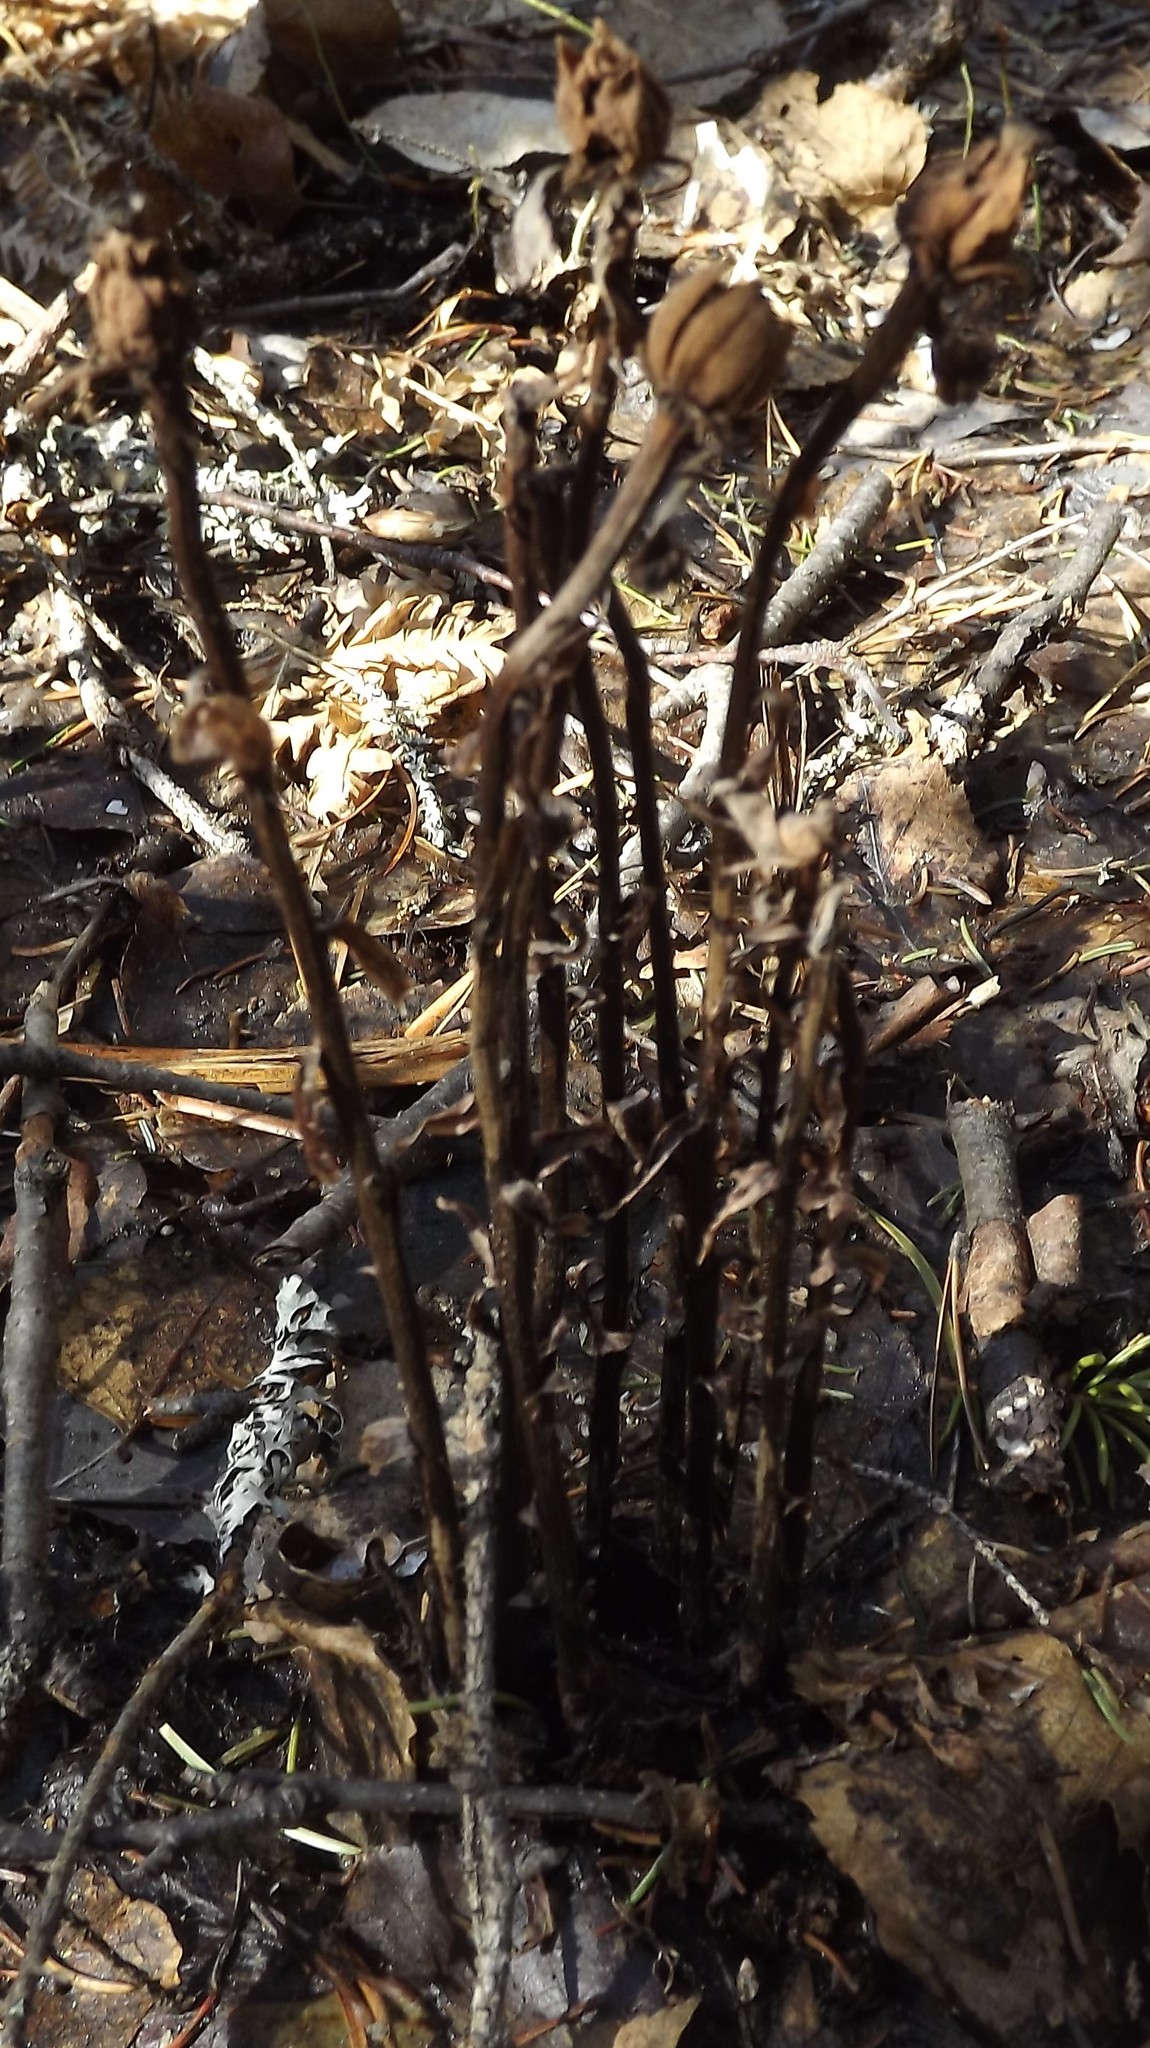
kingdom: Plantae
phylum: Tracheophyta
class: Magnoliopsida
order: Ericales
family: Ericaceae
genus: Monotropa
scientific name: Monotropa uniflora
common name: Convulsion root
